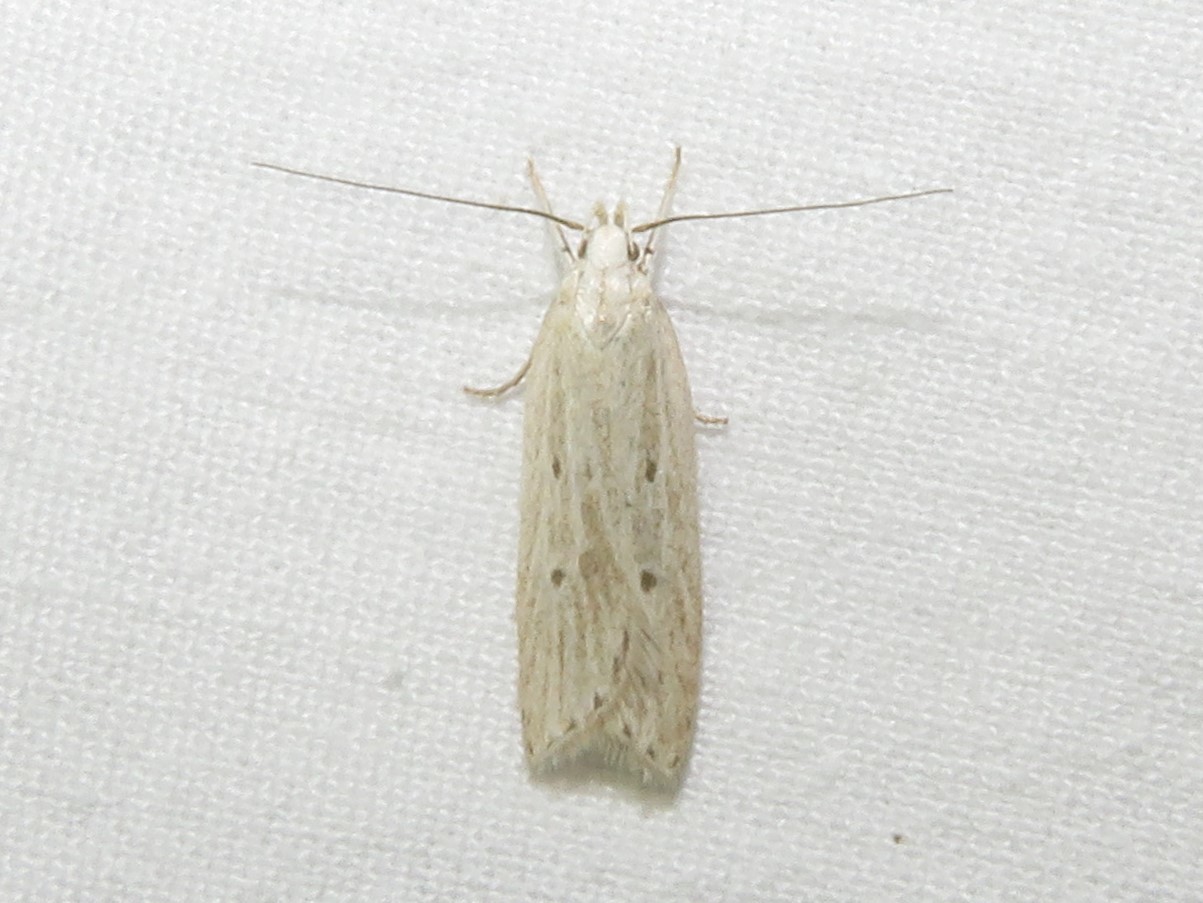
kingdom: Animalia
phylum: Arthropoda
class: Insecta
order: Lepidoptera
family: Gelechiidae
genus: Helcystogramma
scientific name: Helcystogramma fernaldella
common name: Fernald's helcystogramma moth
